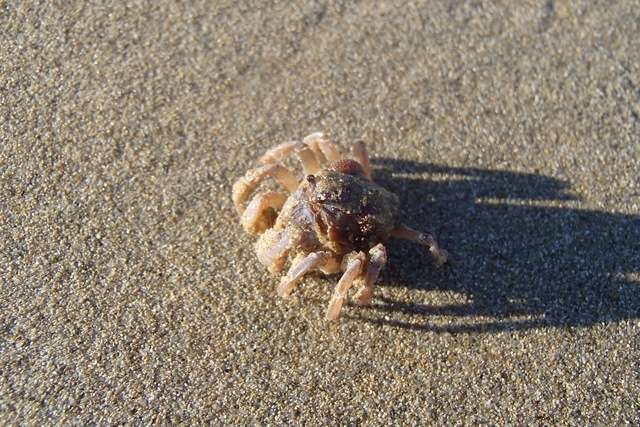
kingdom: Animalia
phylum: Arthropoda
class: Malacostraca
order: Decapoda
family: Mictyridae
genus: Mictyris
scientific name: Mictyris platycheles
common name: Dark blue soldier crab
